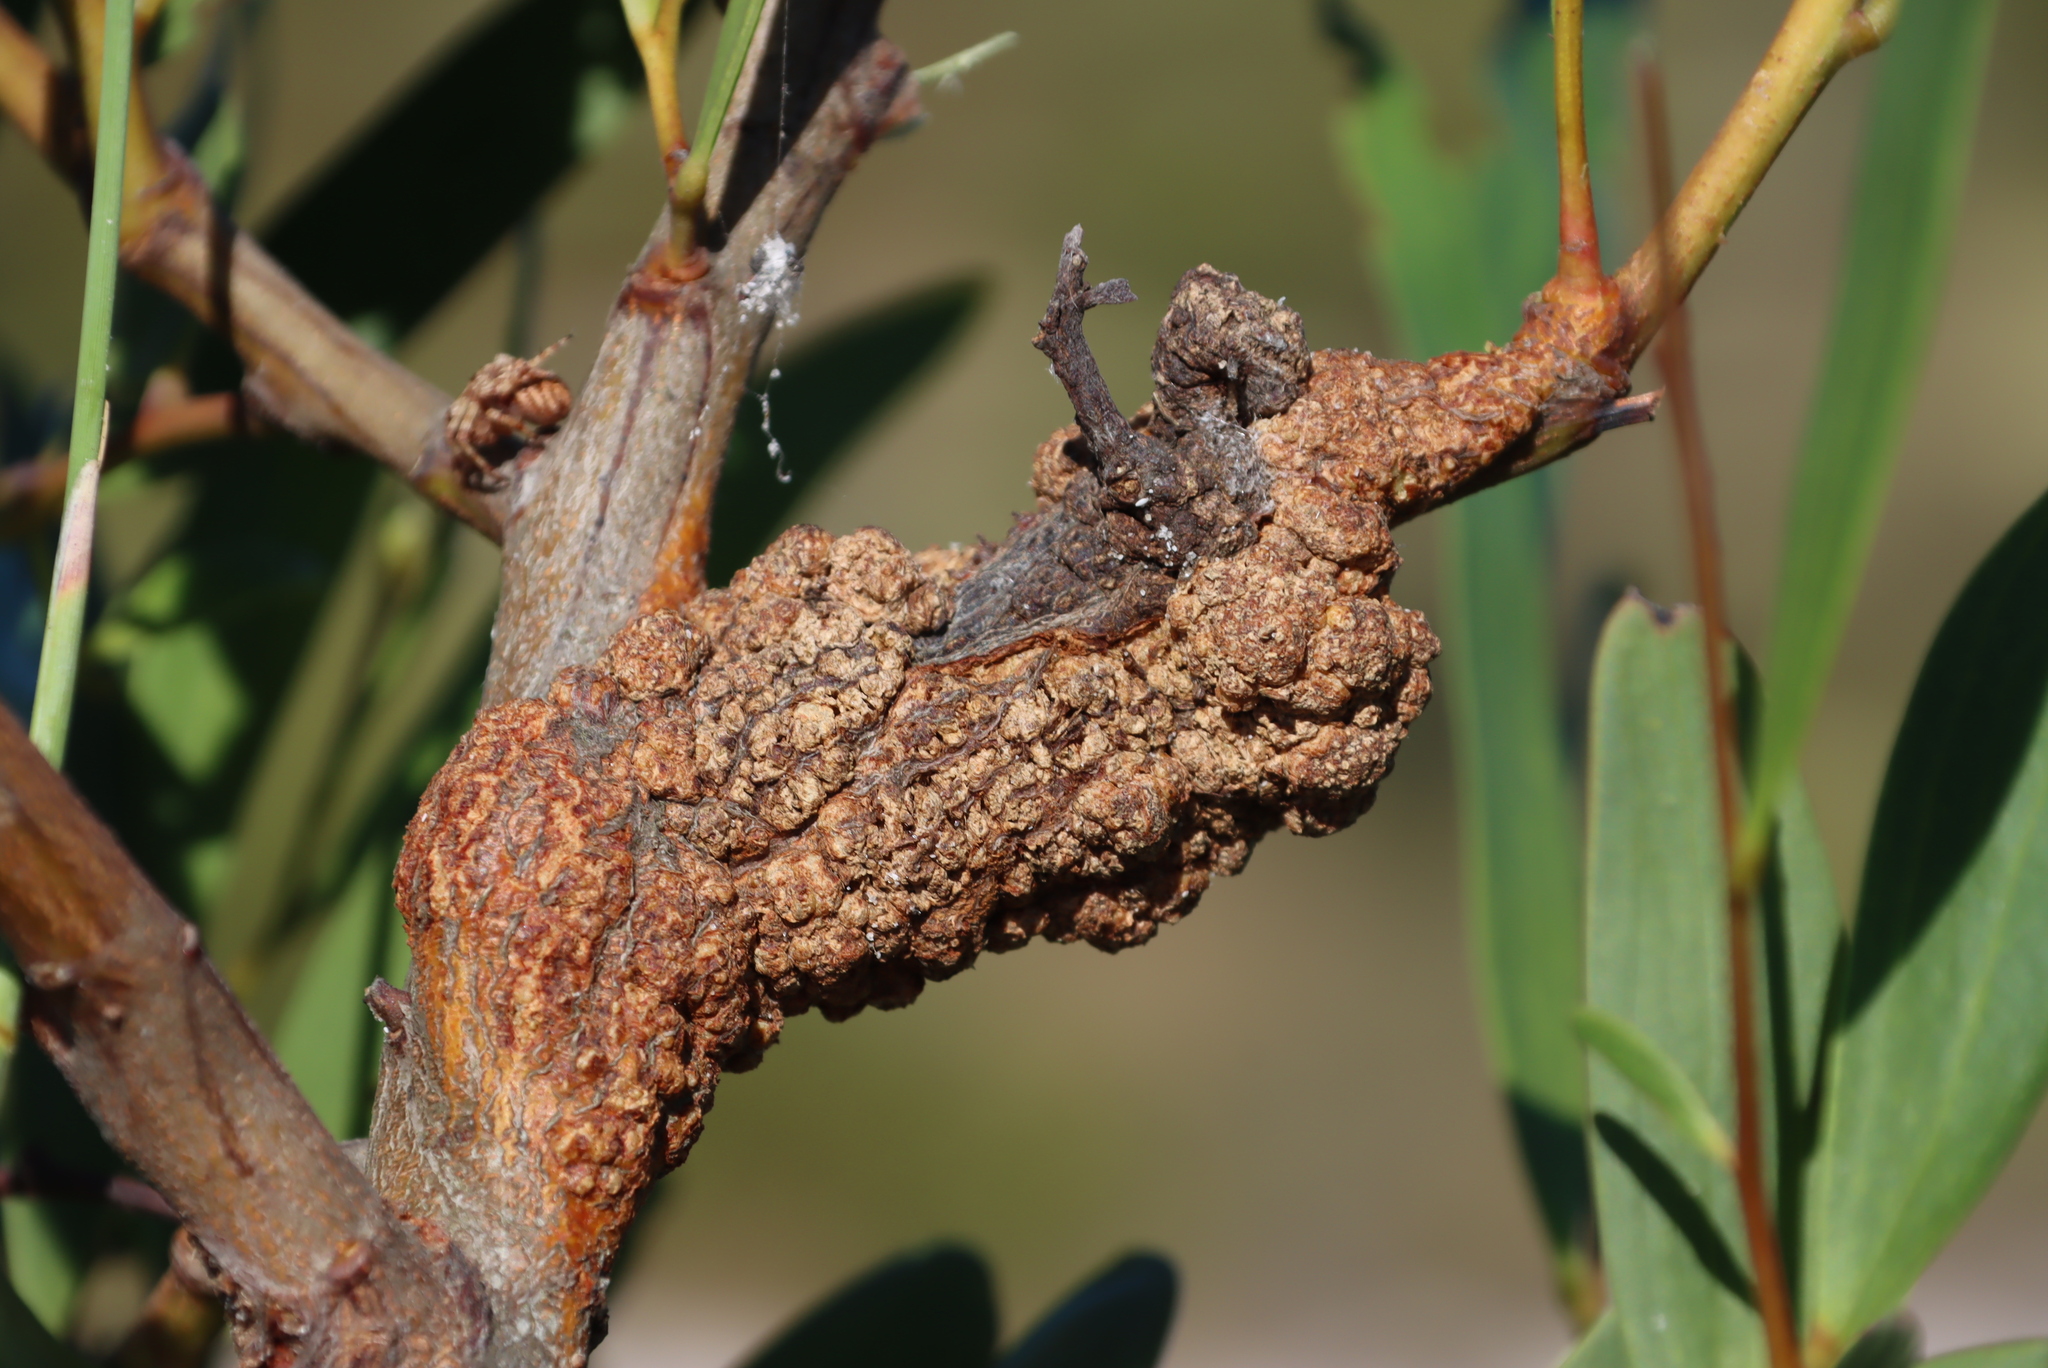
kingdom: Plantae
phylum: Tracheophyta
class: Magnoliopsida
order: Fabales
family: Fabaceae
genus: Acacia
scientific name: Acacia cyclops
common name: Coastal wattle
